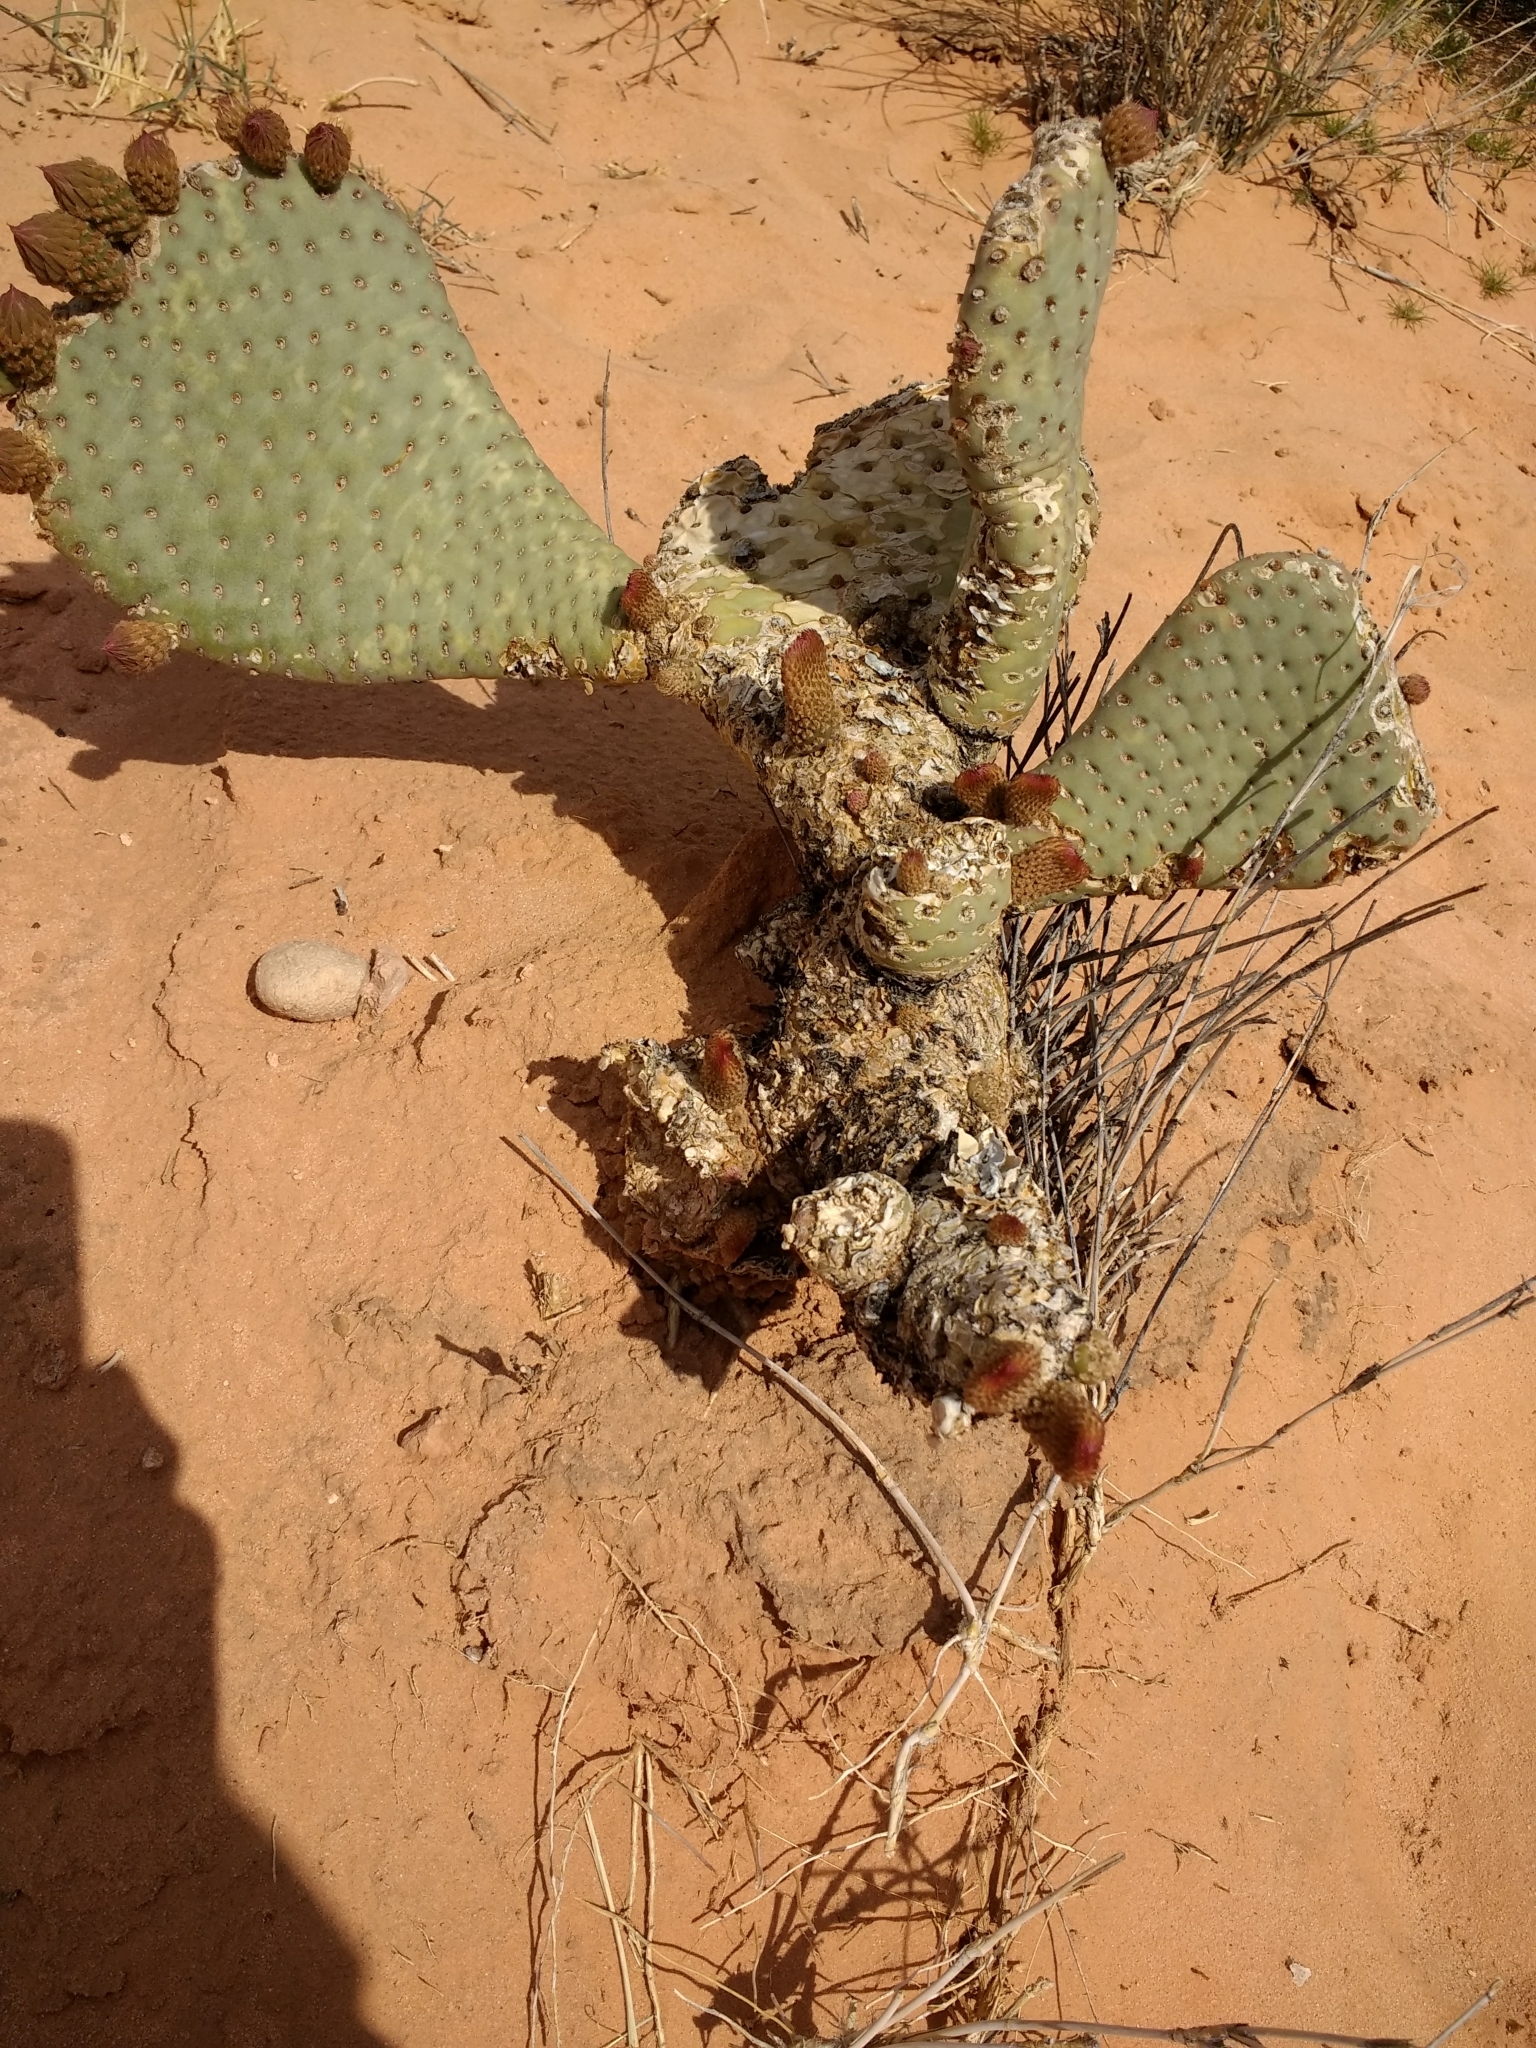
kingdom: Plantae
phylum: Tracheophyta
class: Magnoliopsida
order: Caryophyllales
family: Cactaceae
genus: Opuntia
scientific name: Opuntia basilaris
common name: Beavertail prickly-pear
